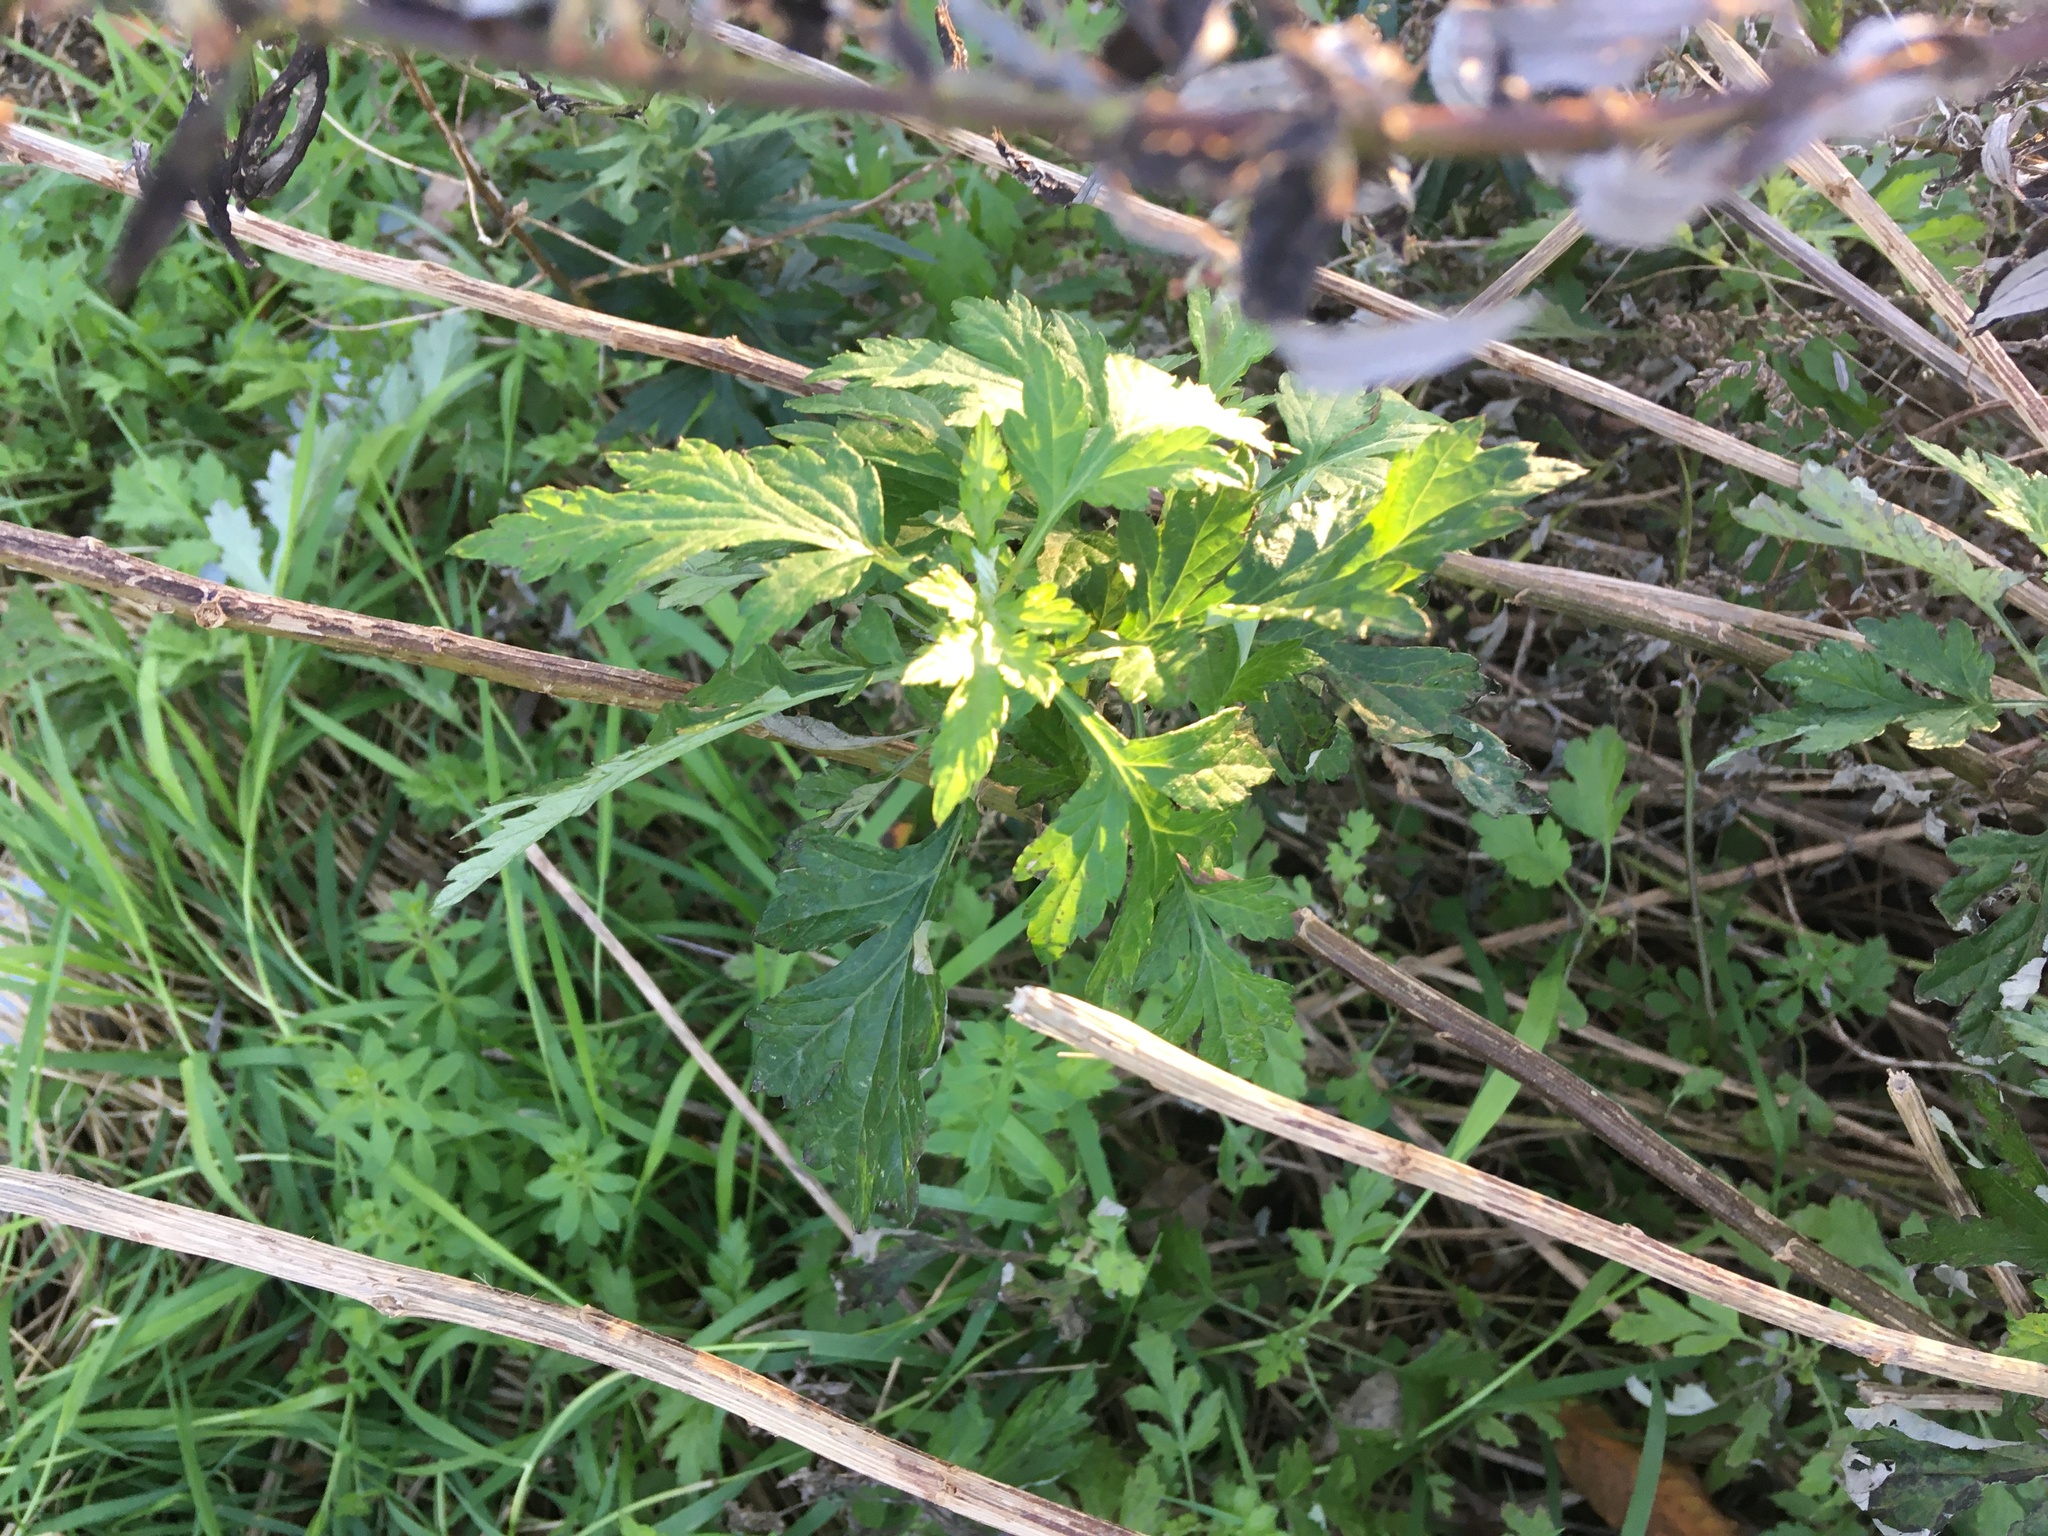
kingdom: Plantae
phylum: Tracheophyta
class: Magnoliopsida
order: Asterales
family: Asteraceae
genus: Artemisia
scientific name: Artemisia vulgaris
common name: Mugwort
